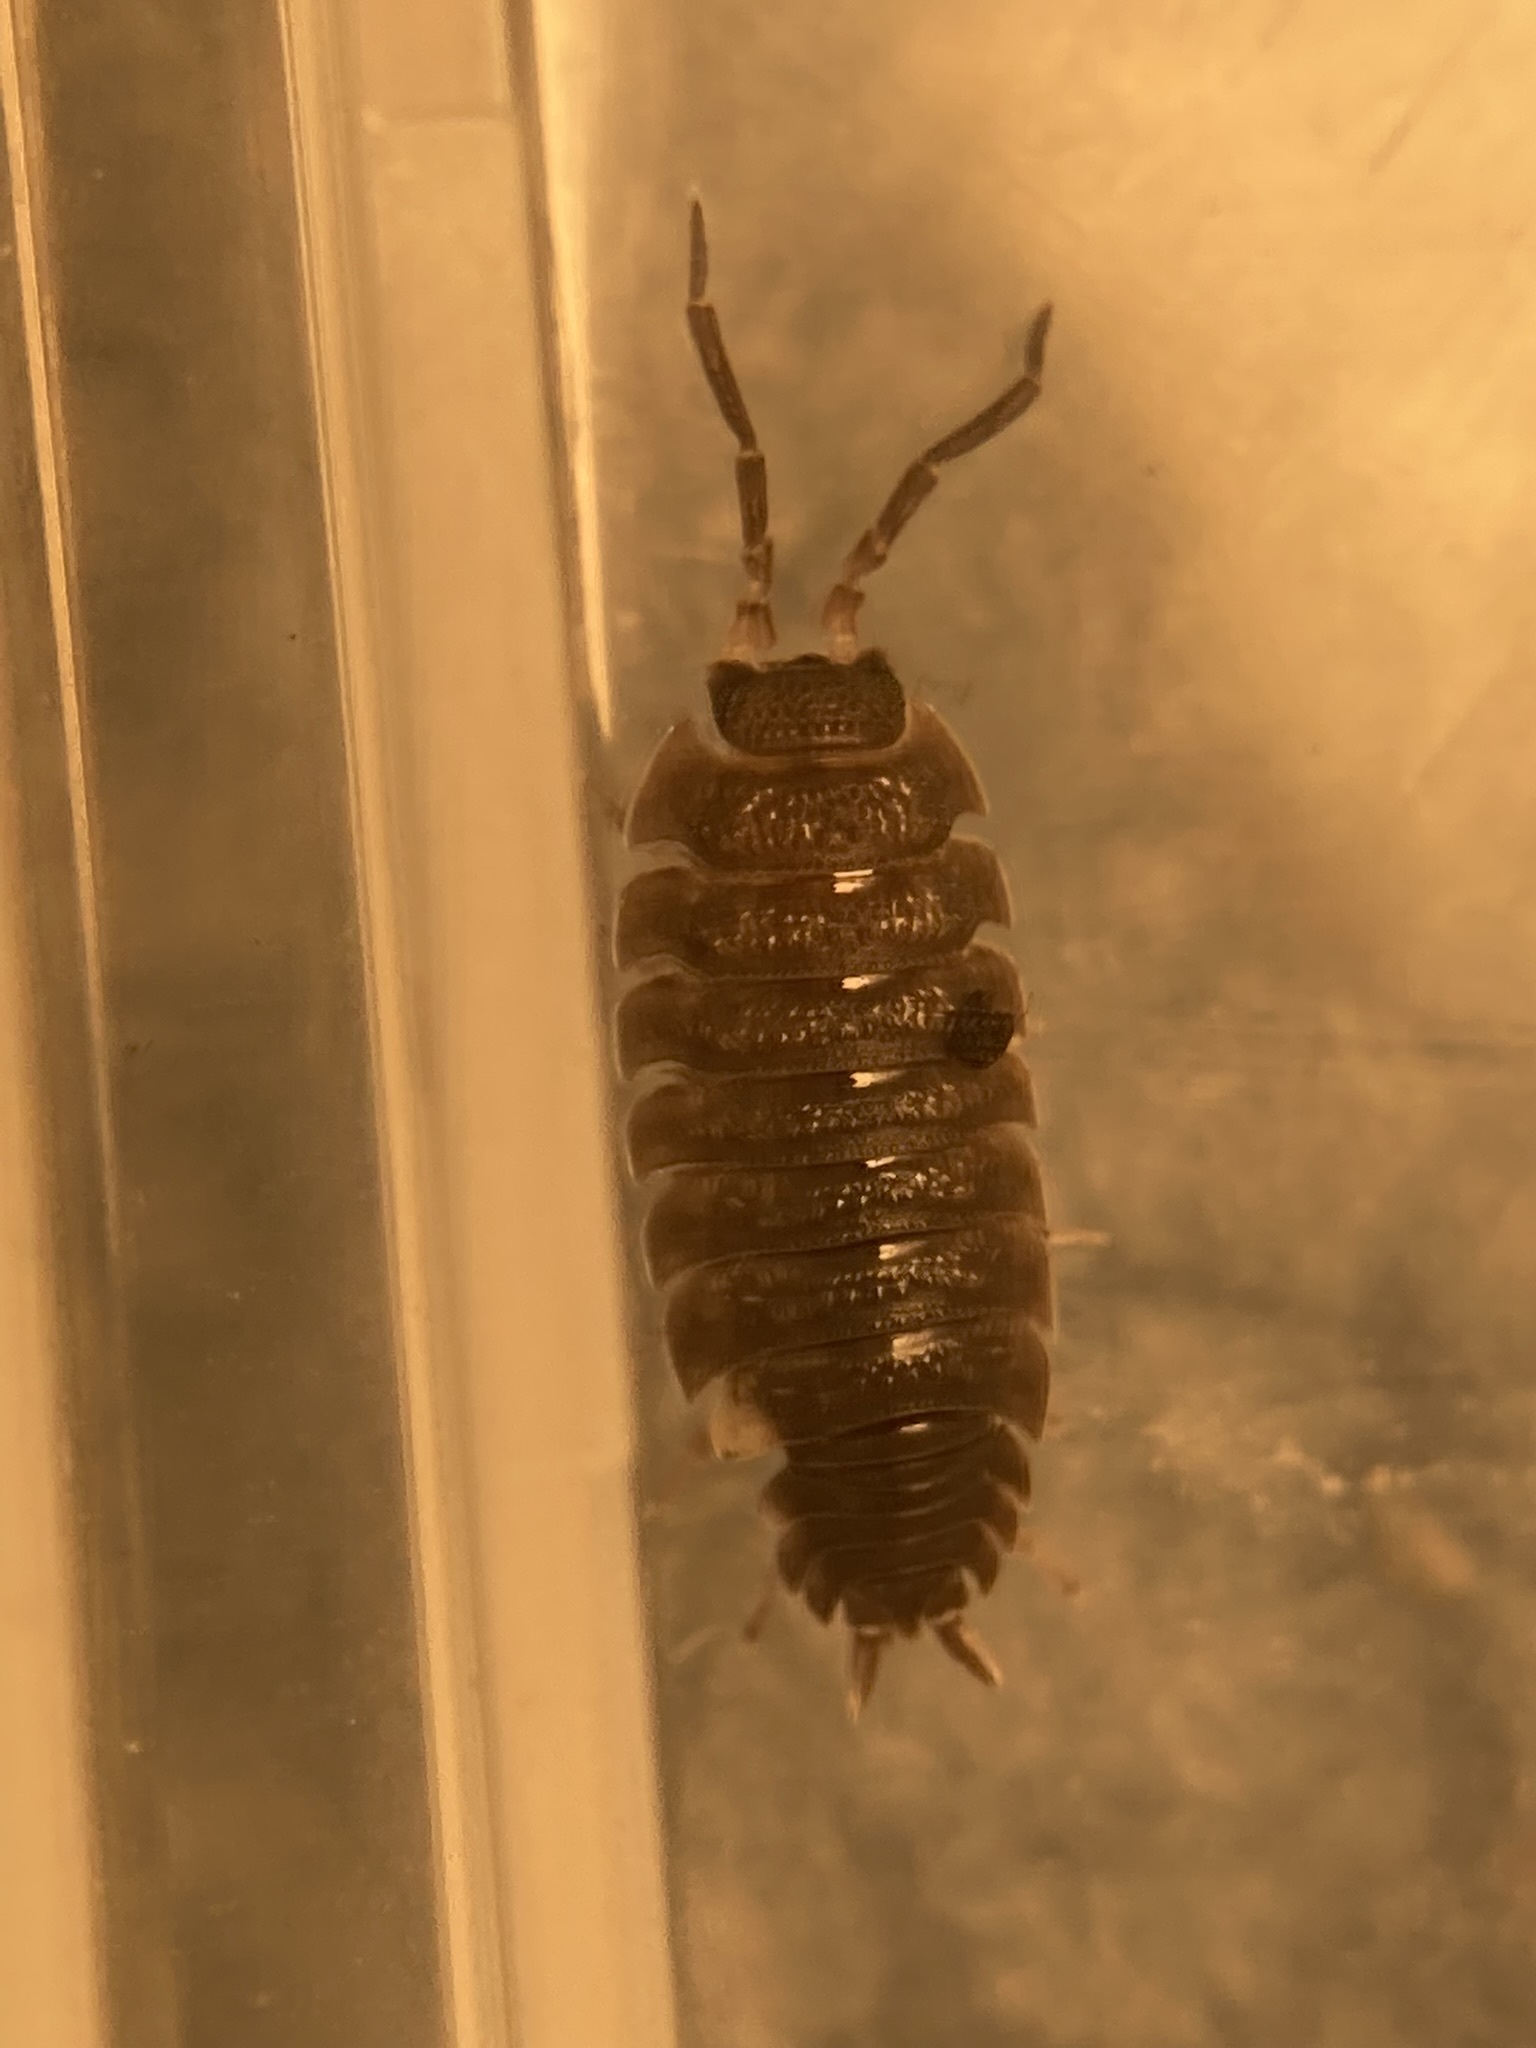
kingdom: Animalia
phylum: Arthropoda
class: Malacostraca
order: Isopoda
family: Porcellionidae
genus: Porcellio
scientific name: Porcellio scaber
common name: Common rough woodlouse
